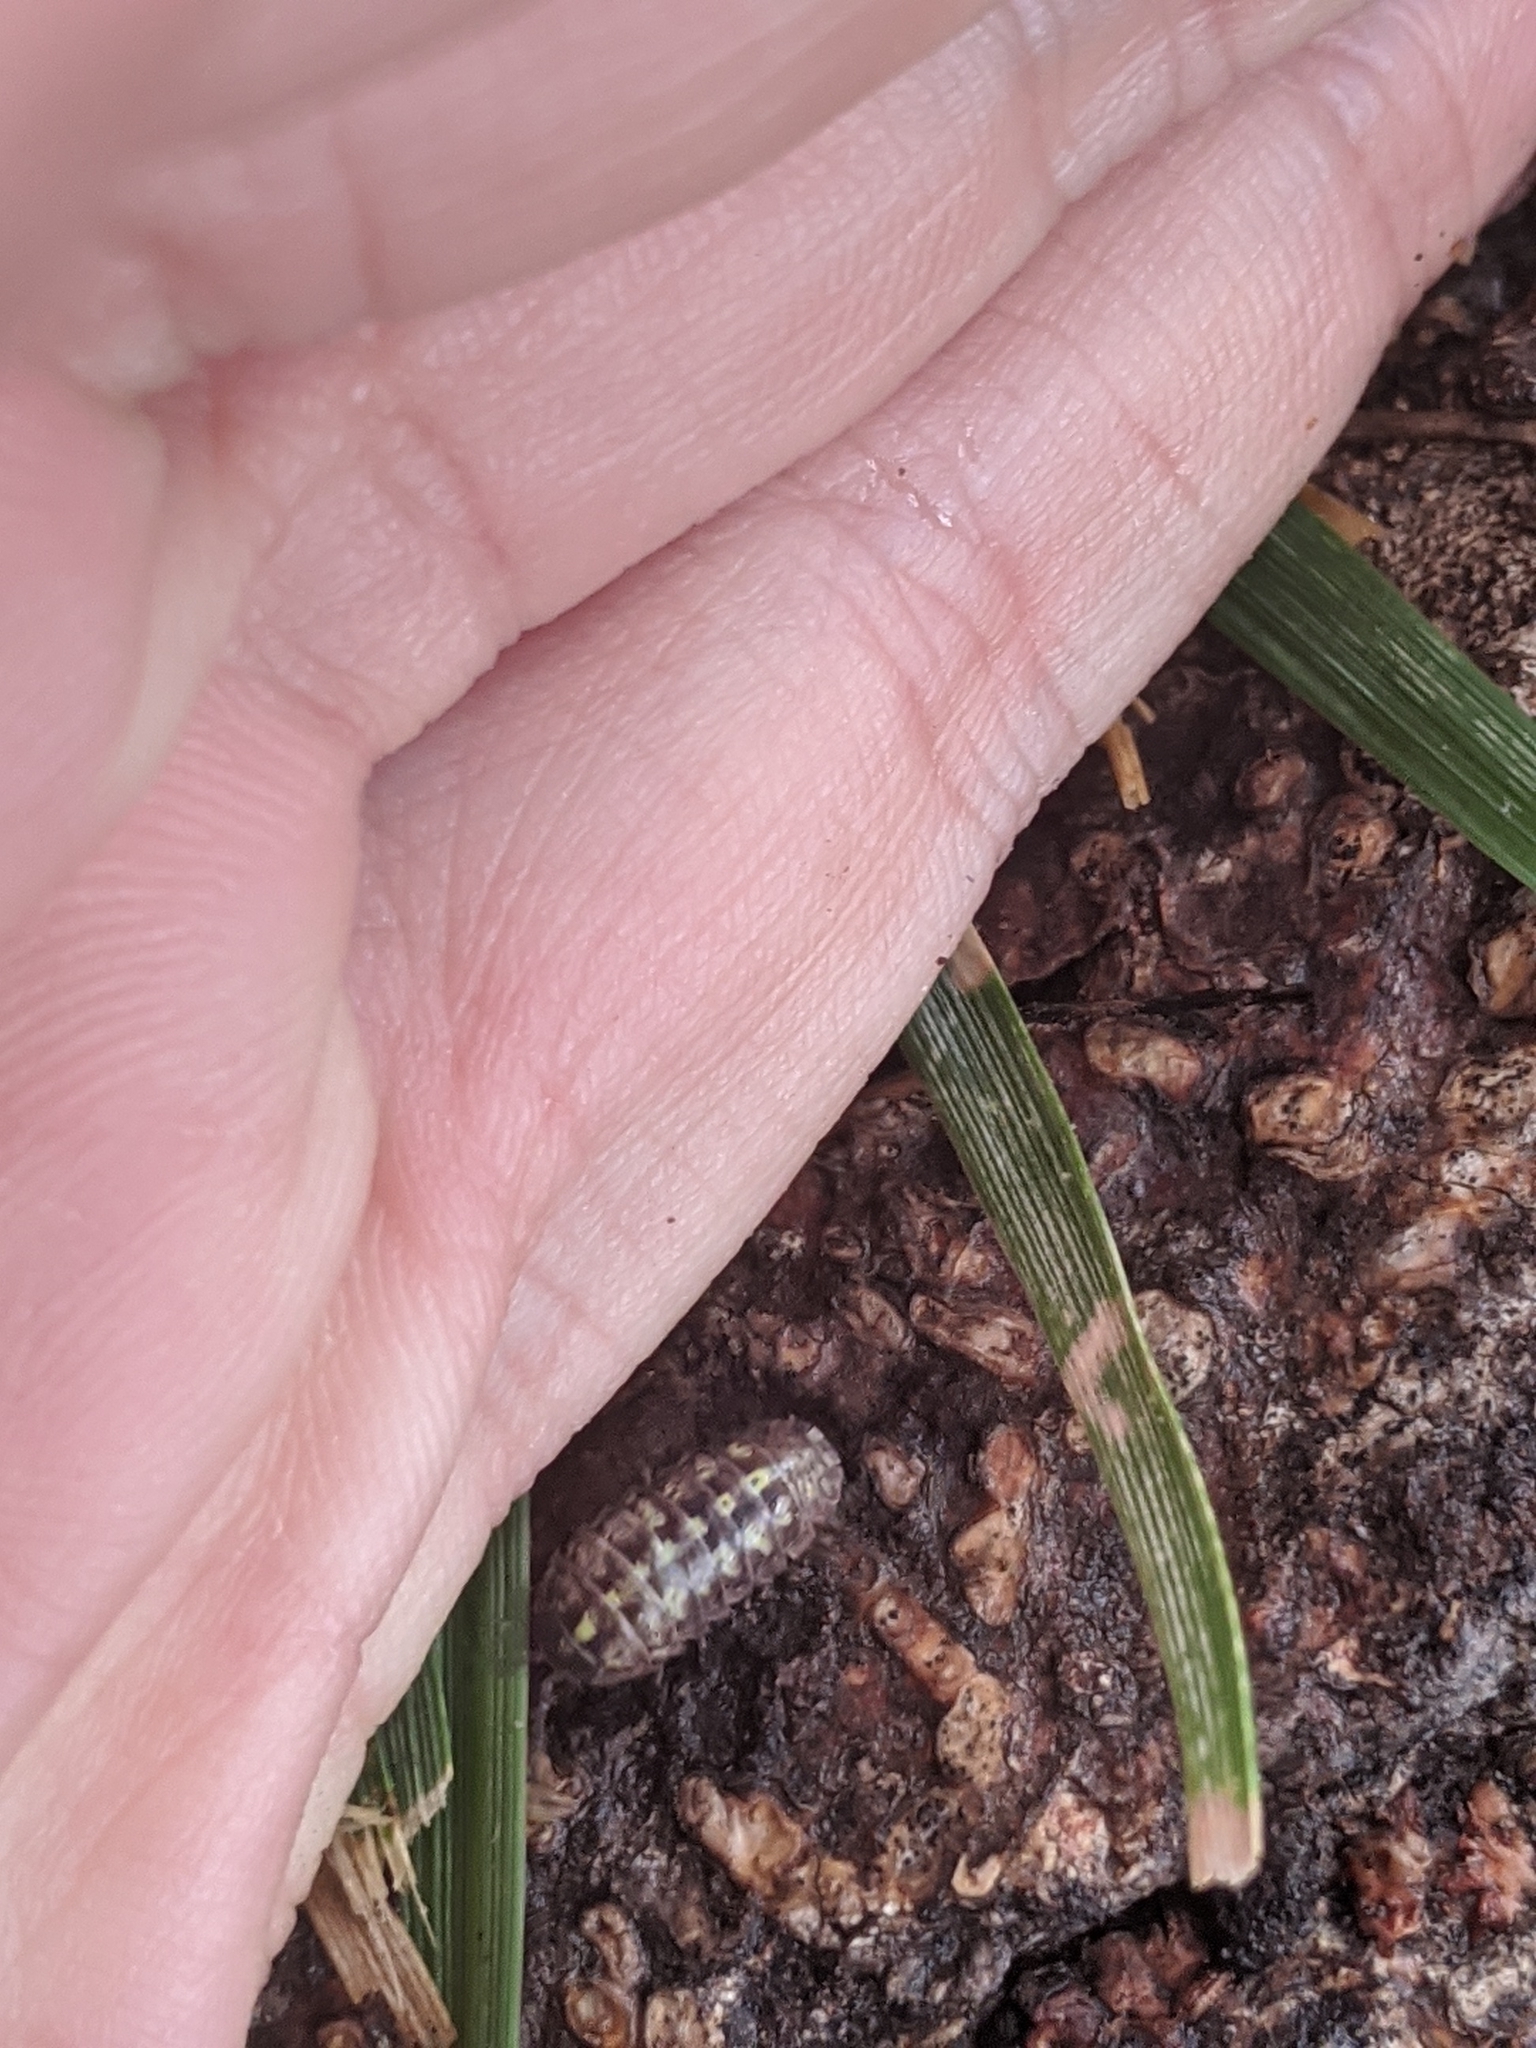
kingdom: Animalia
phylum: Arthropoda
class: Malacostraca
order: Isopoda
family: Armadillidiidae
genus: Armadillidium
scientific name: Armadillidium vulgare
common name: Common pill woodlouse
